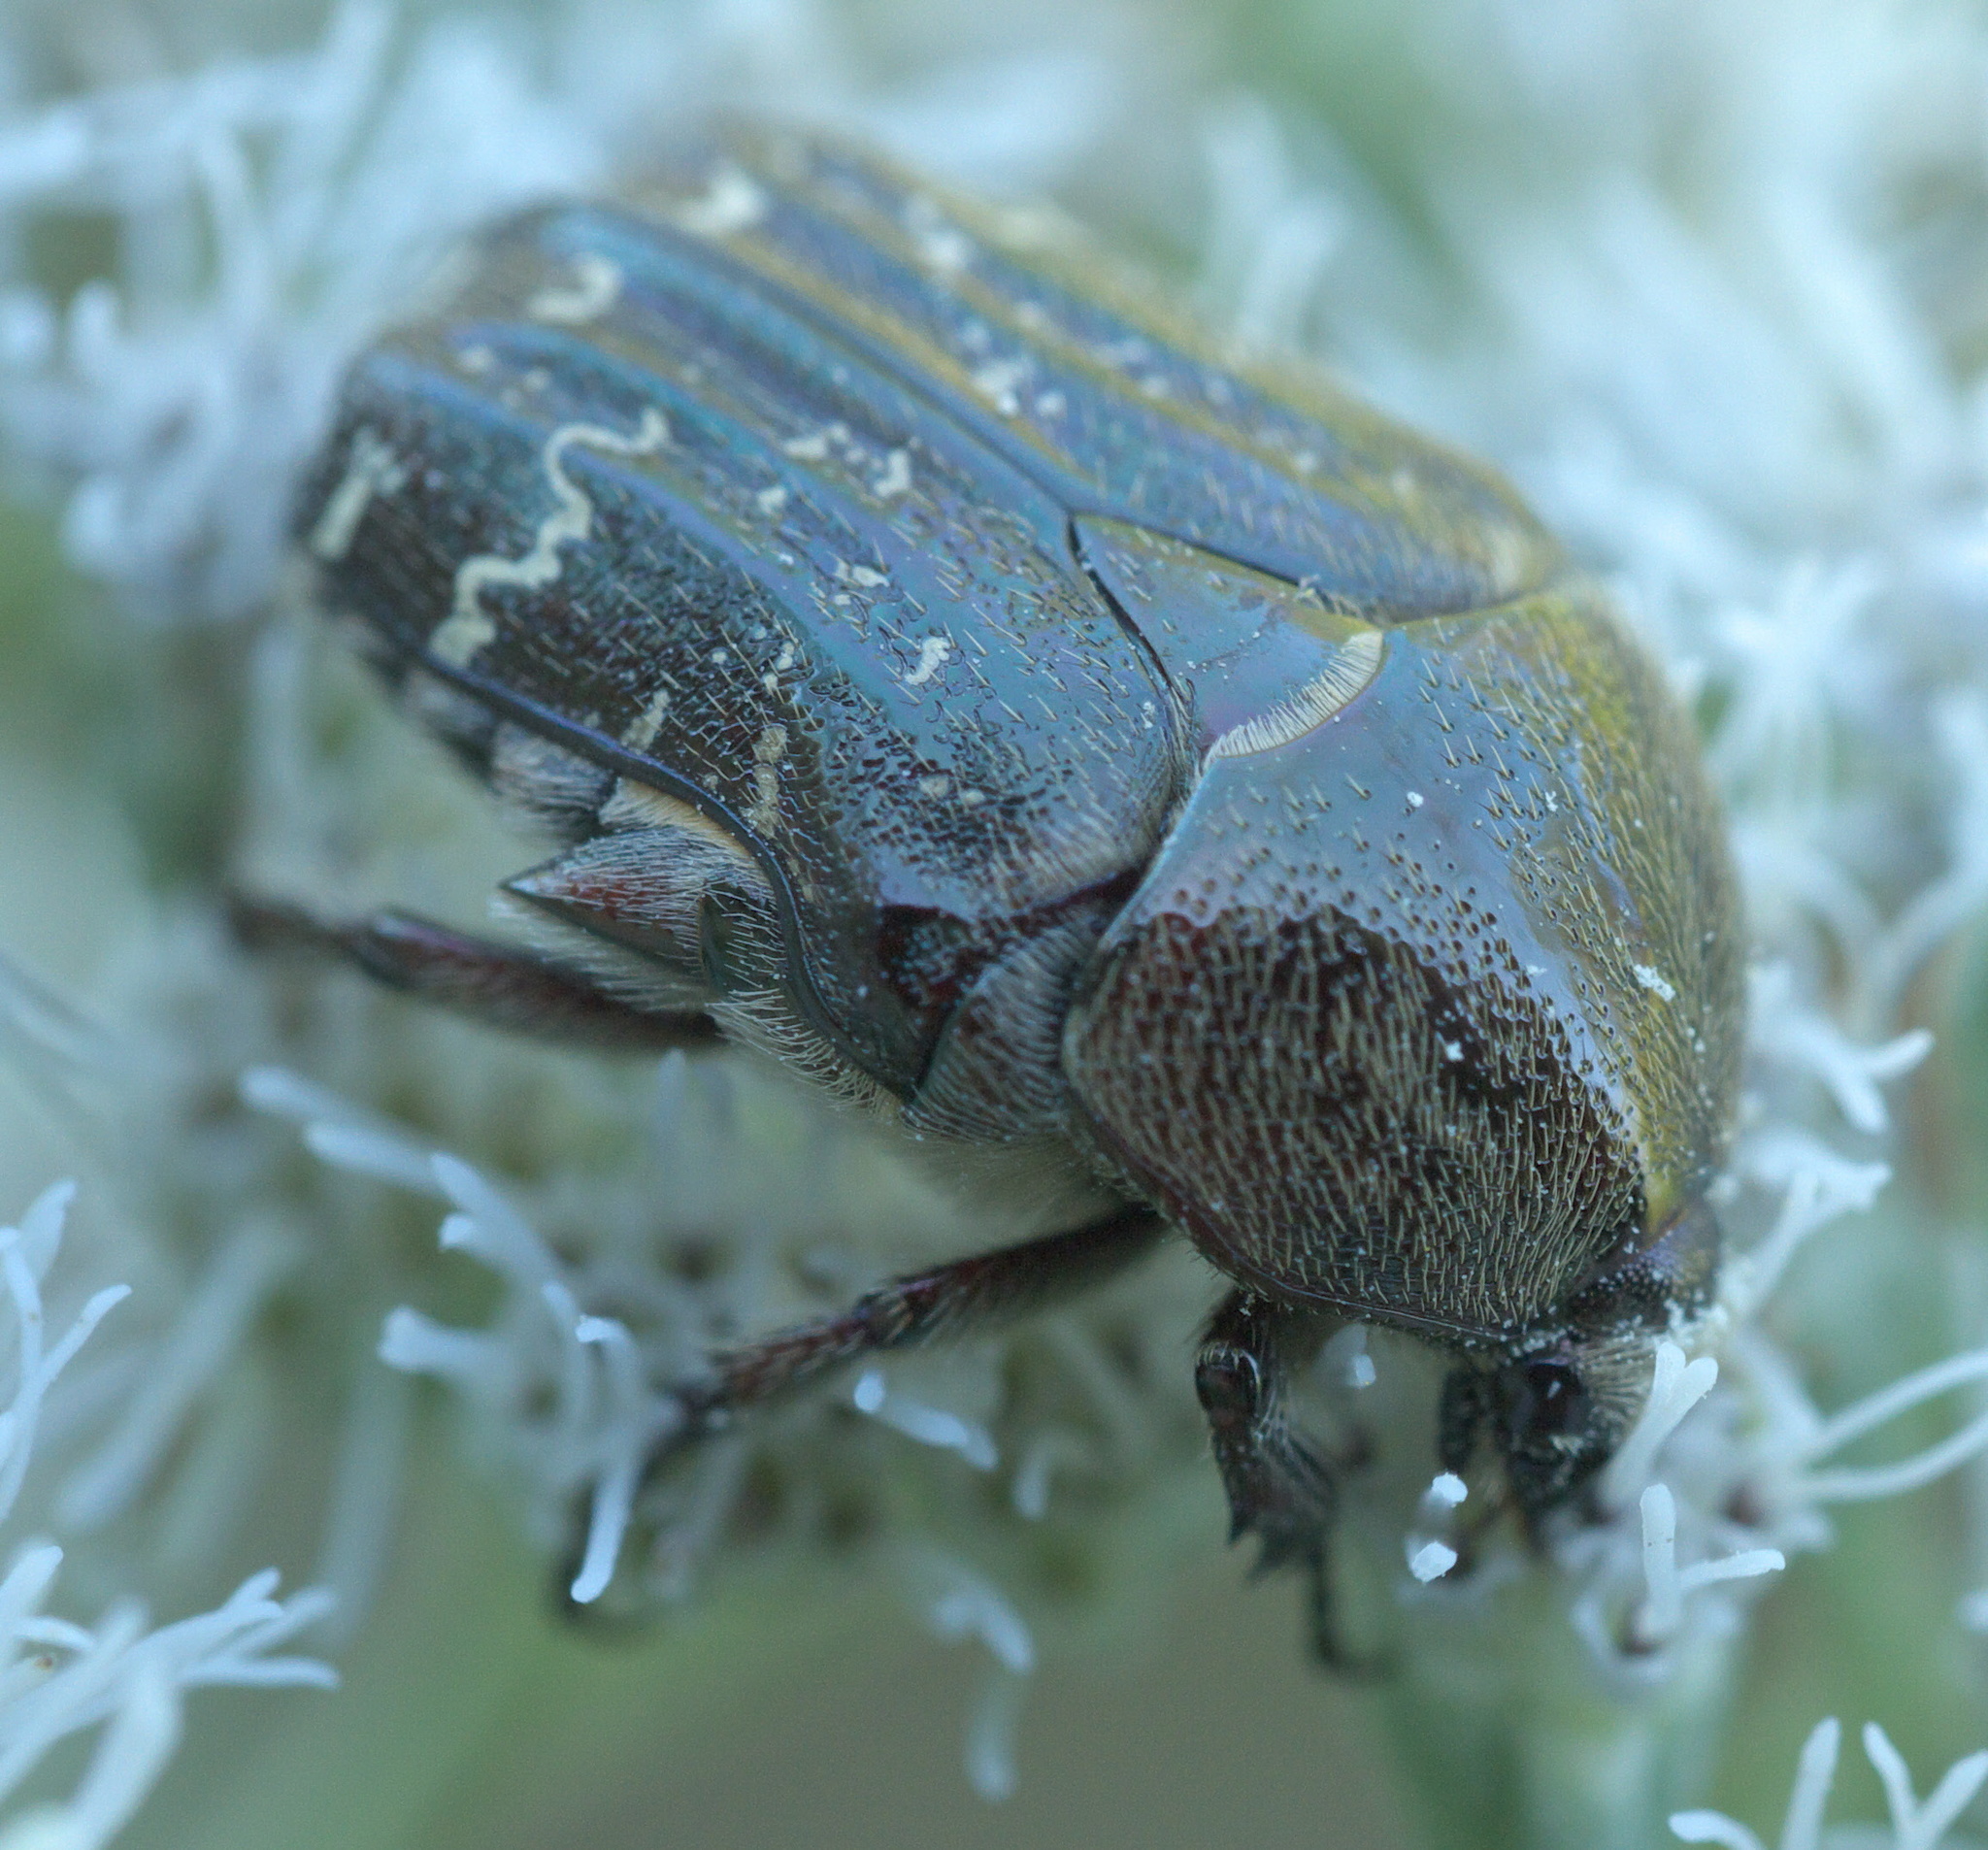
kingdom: Animalia
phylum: Arthropoda
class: Insecta
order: Coleoptera
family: Scarabaeidae
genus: Euphoria
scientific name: Euphoria sepulcralis
